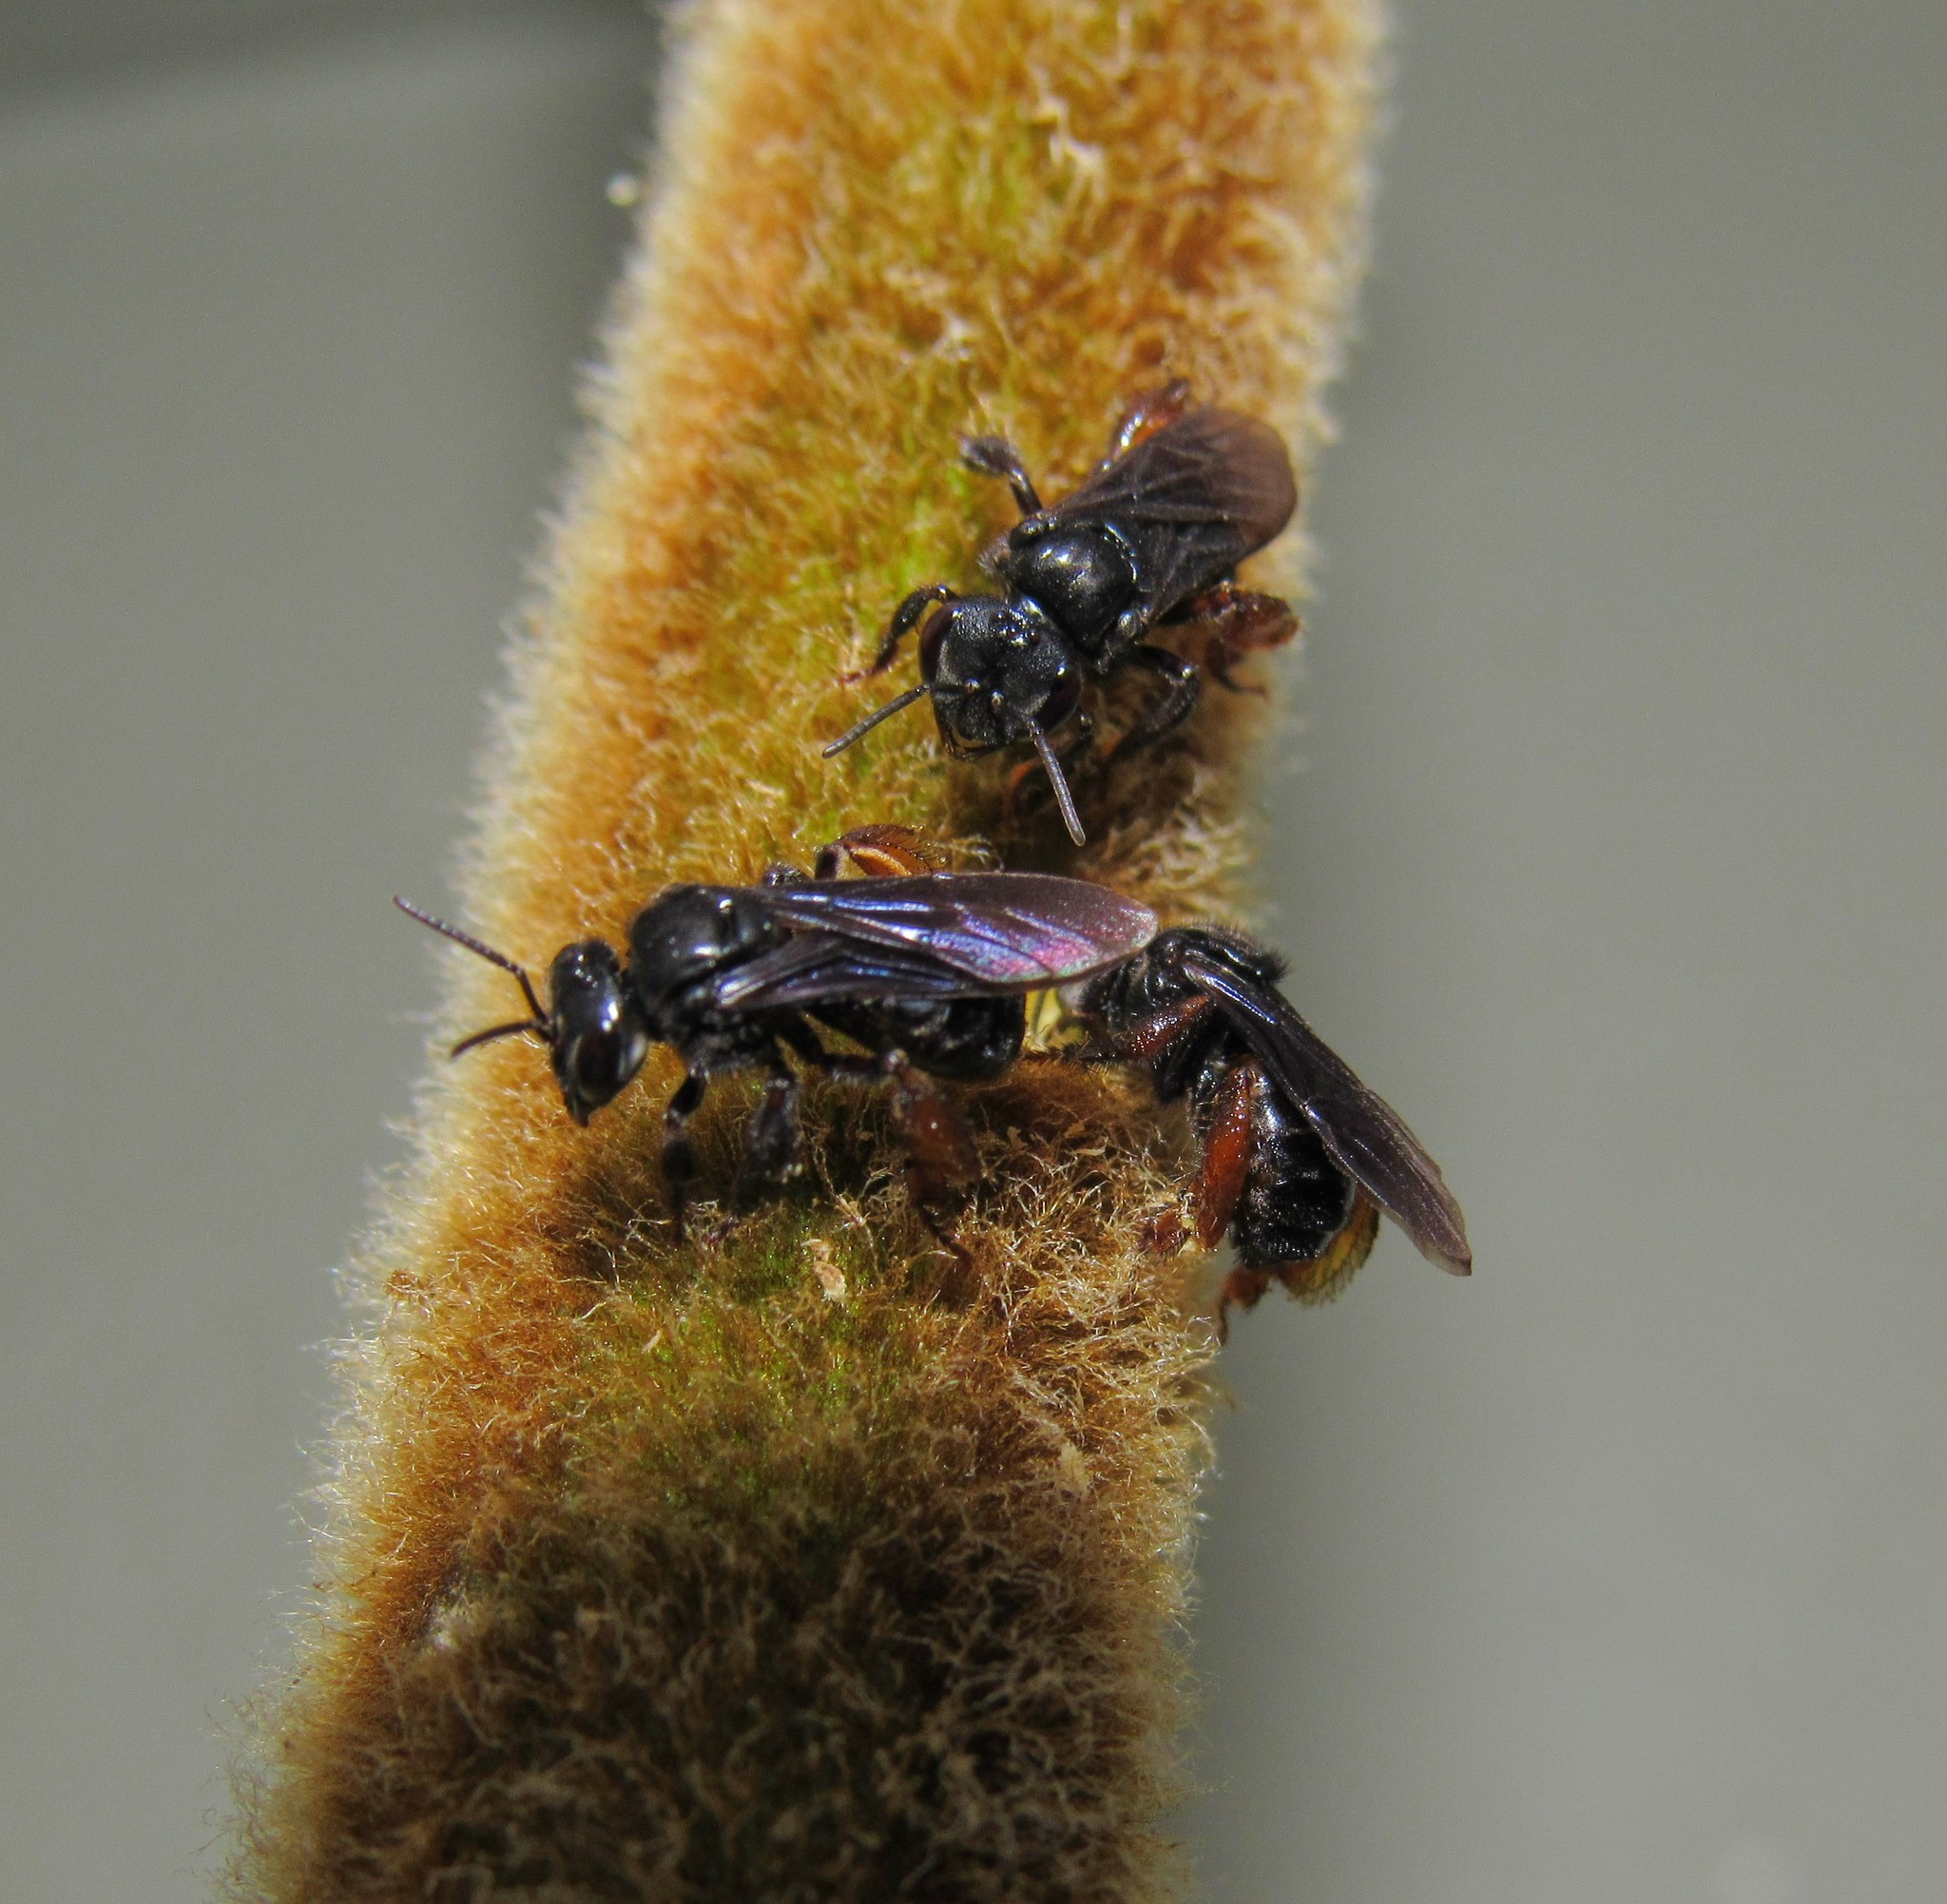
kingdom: Animalia
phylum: Arthropoda
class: Insecta
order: Hymenoptera
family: Apidae
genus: Trigona
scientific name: Trigona spinipes
